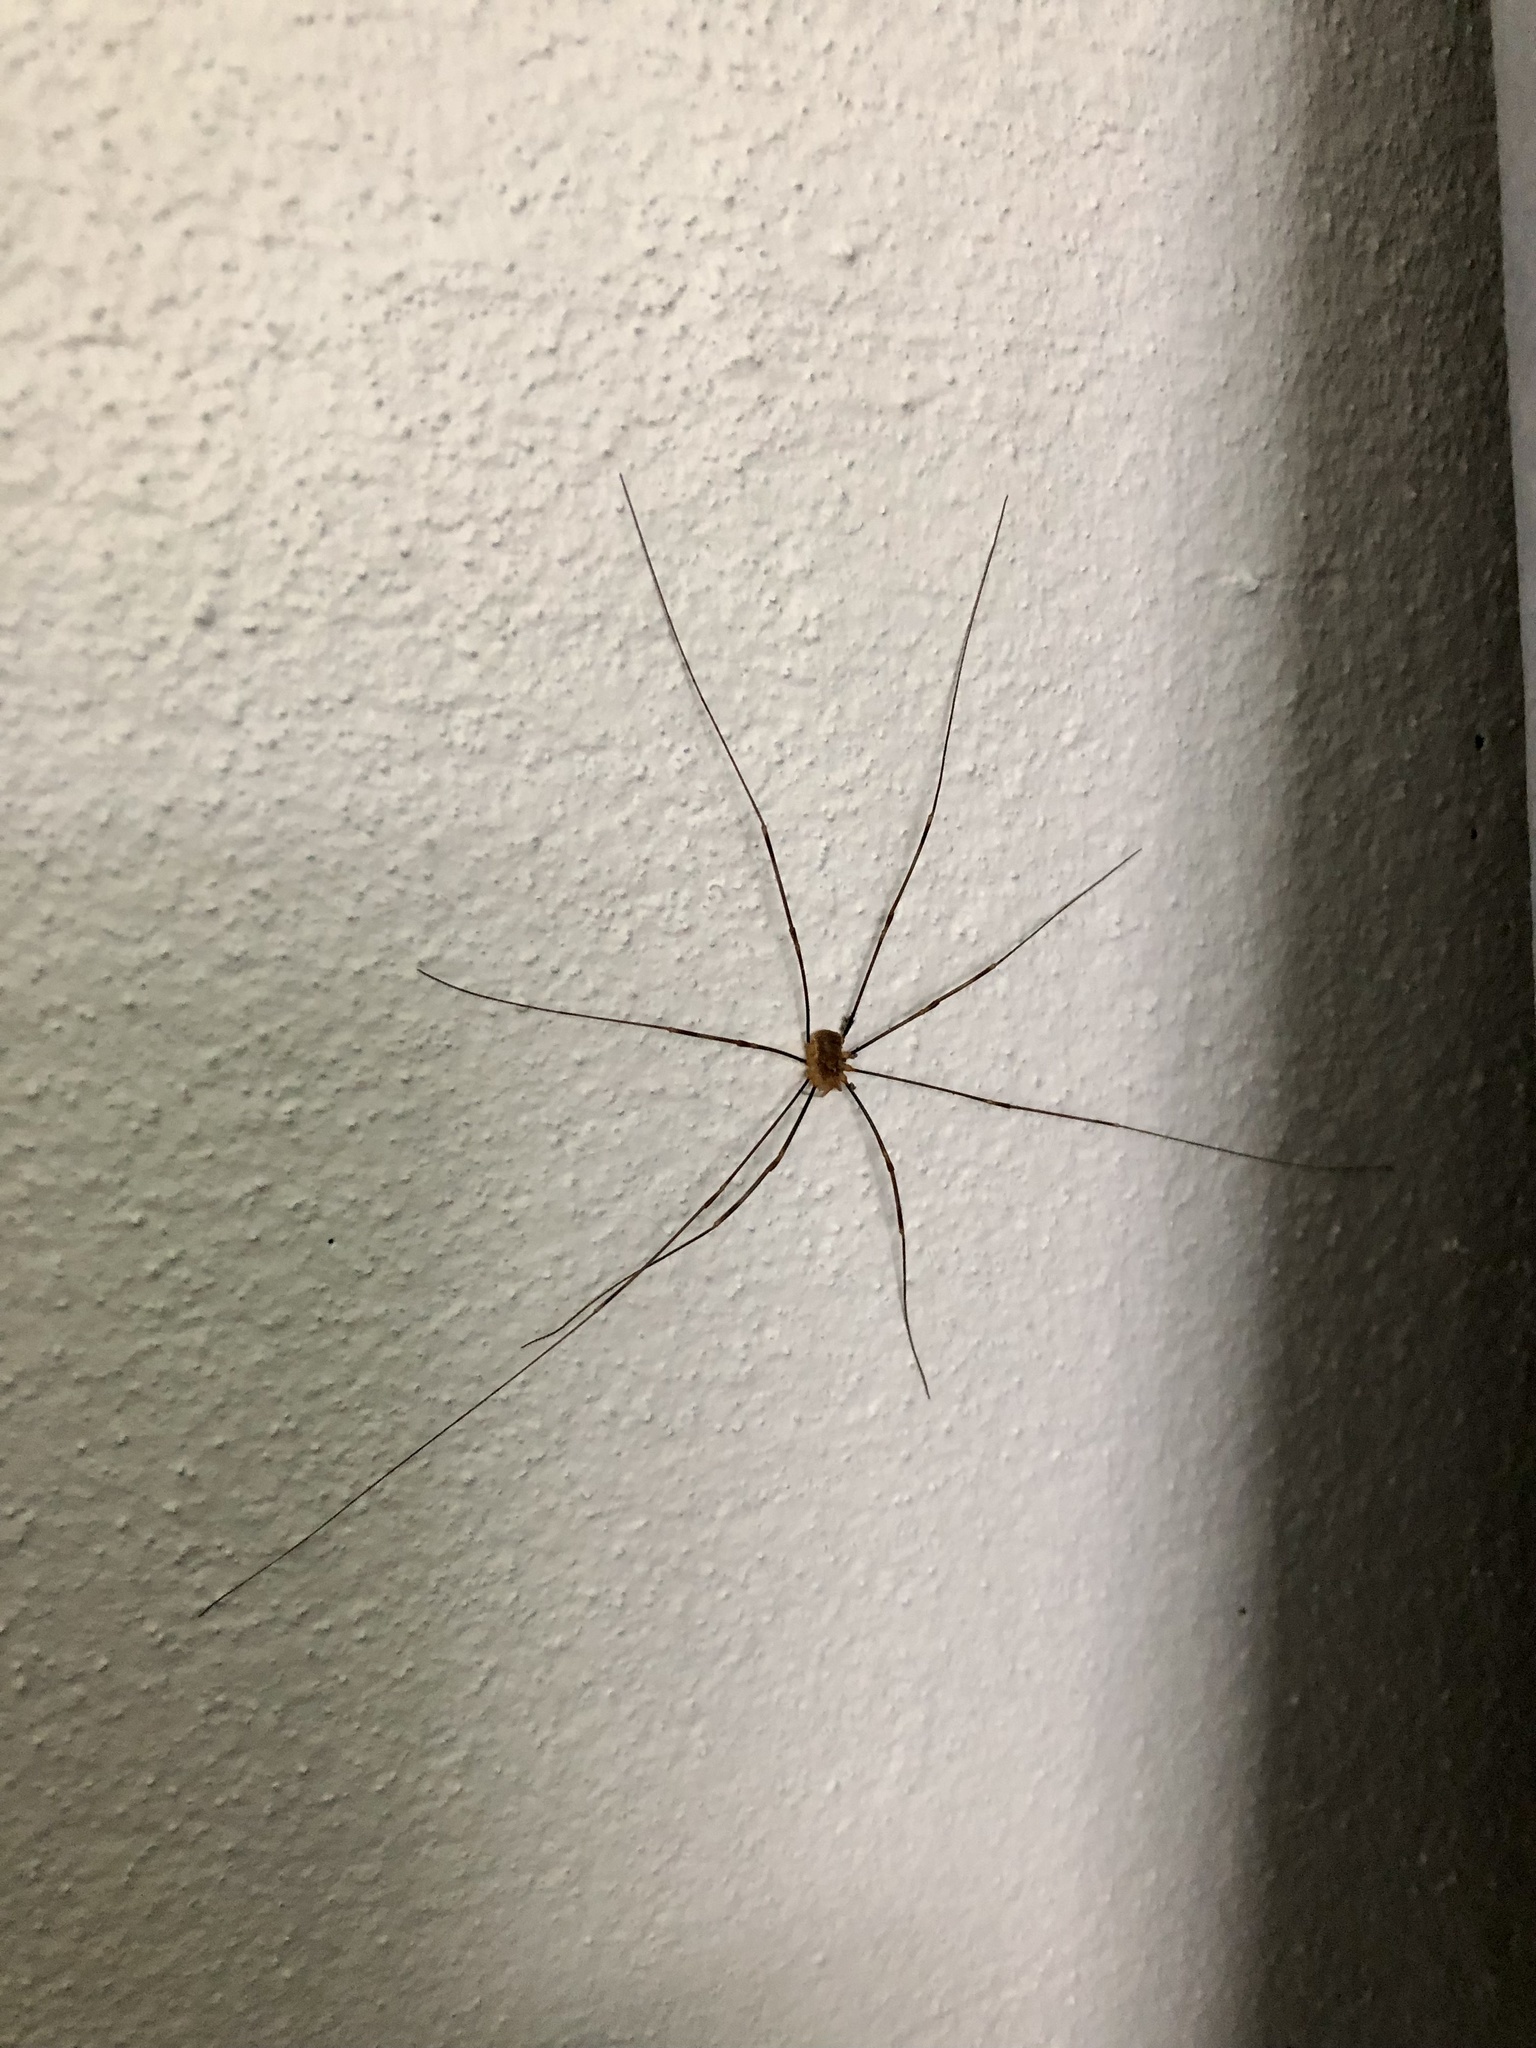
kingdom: Animalia
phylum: Arthropoda
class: Arachnida
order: Opiliones
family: Phalangiidae
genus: Opilio
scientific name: Opilio canestrinii
